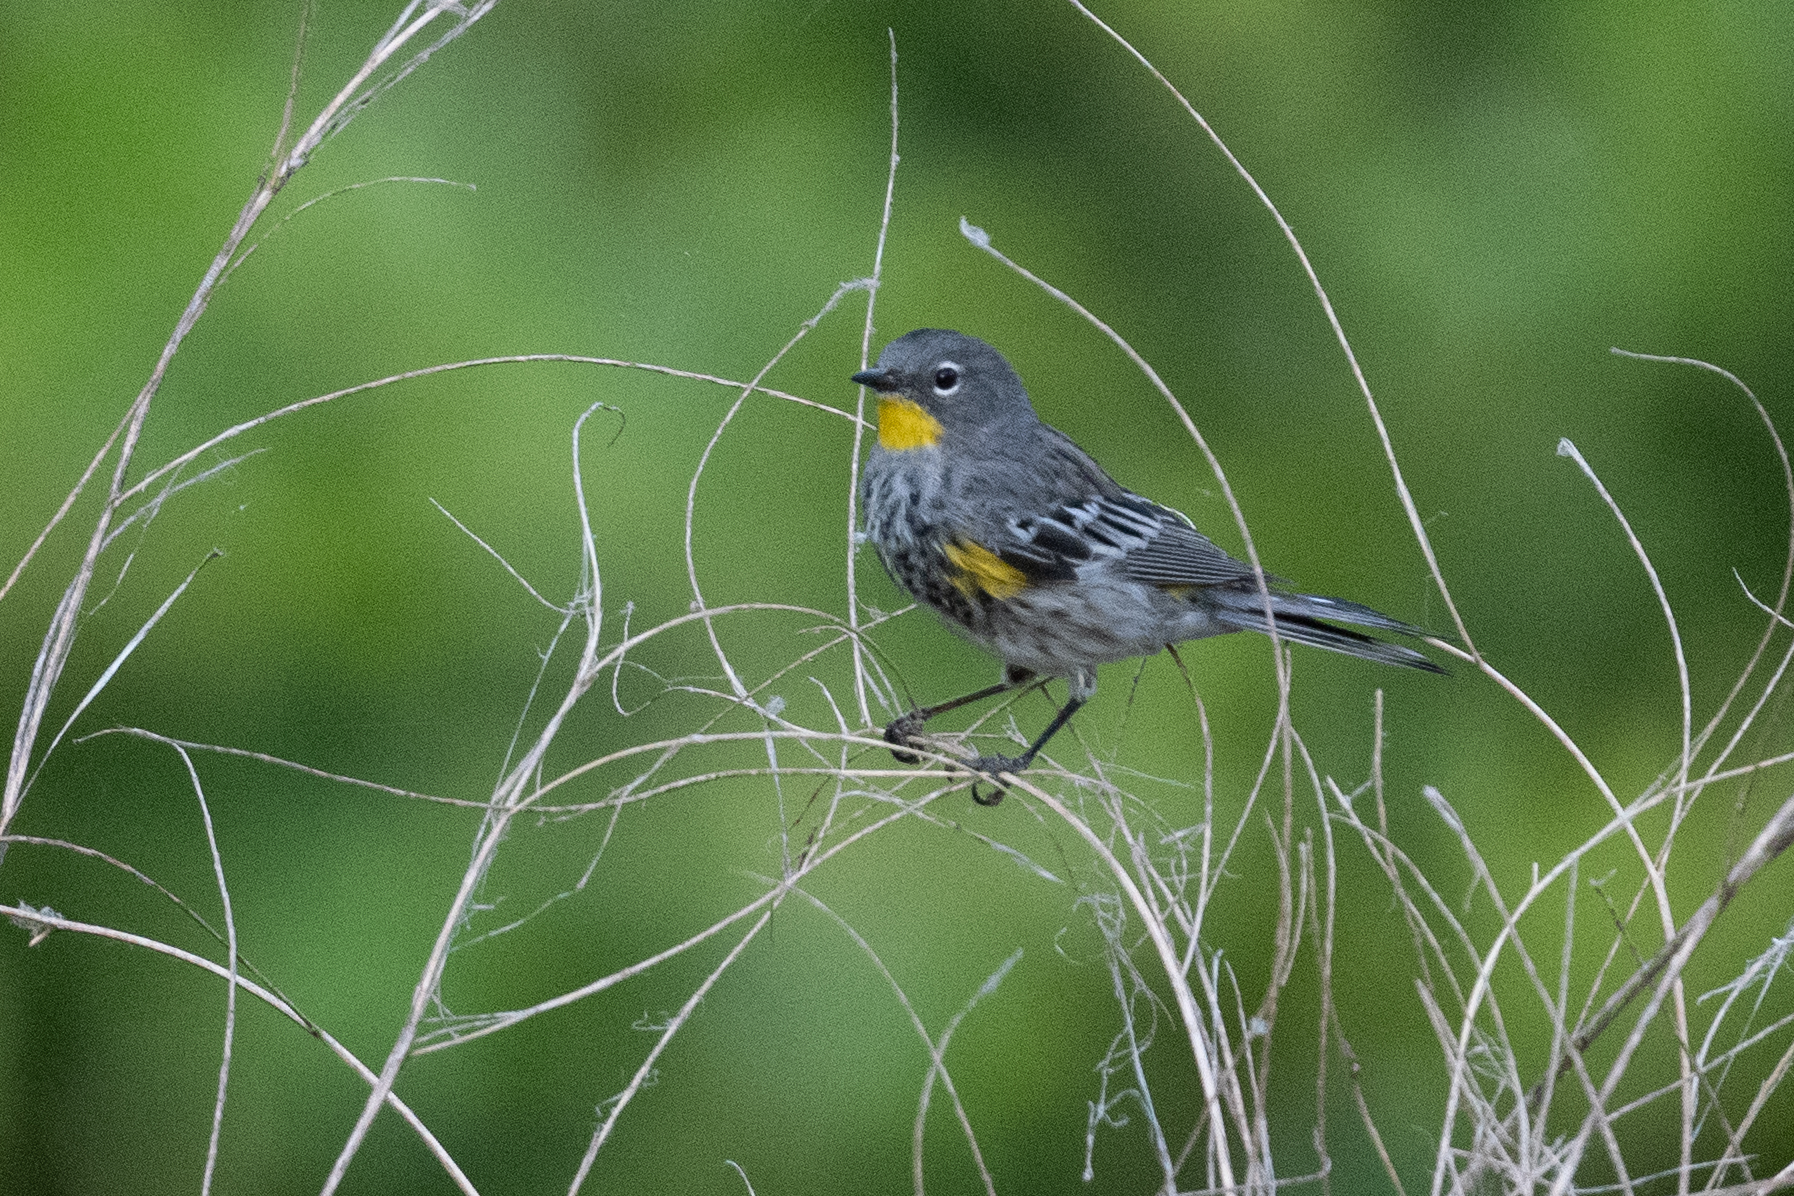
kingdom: Animalia
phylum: Chordata
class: Aves
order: Passeriformes
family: Parulidae
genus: Setophaga
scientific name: Setophaga auduboni
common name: Audubon's warbler
